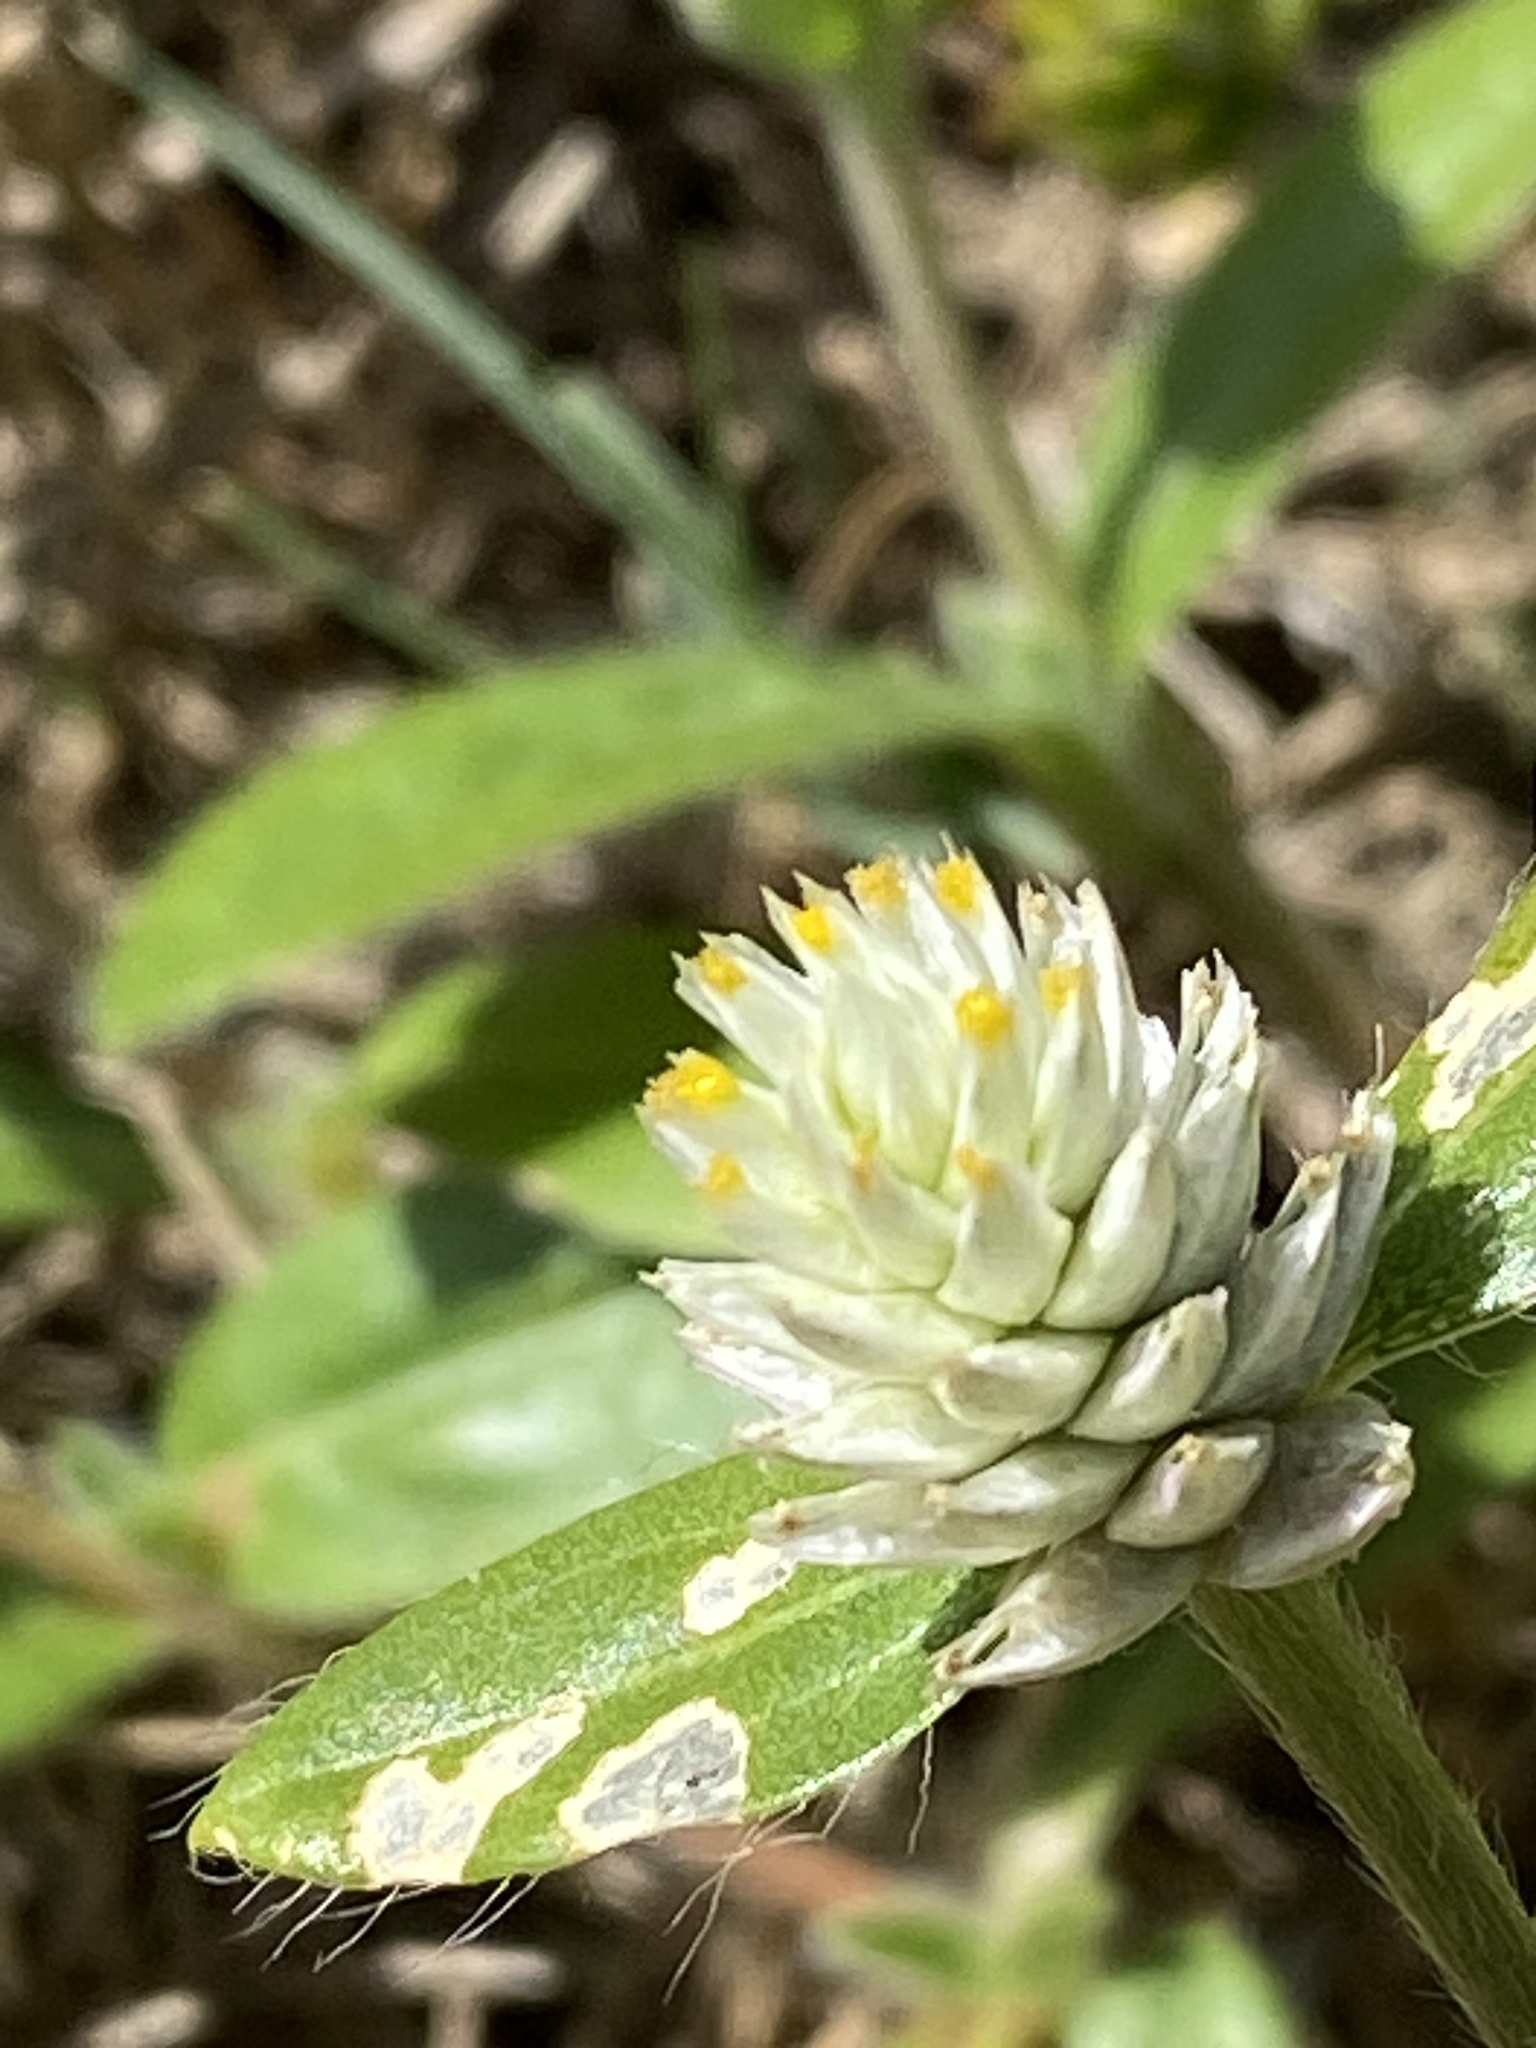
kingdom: Plantae
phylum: Tracheophyta
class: Magnoliopsida
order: Caryophyllales
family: Amaranthaceae
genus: Gomphrena
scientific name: Gomphrena celosioides
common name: Gomphrena-weed
